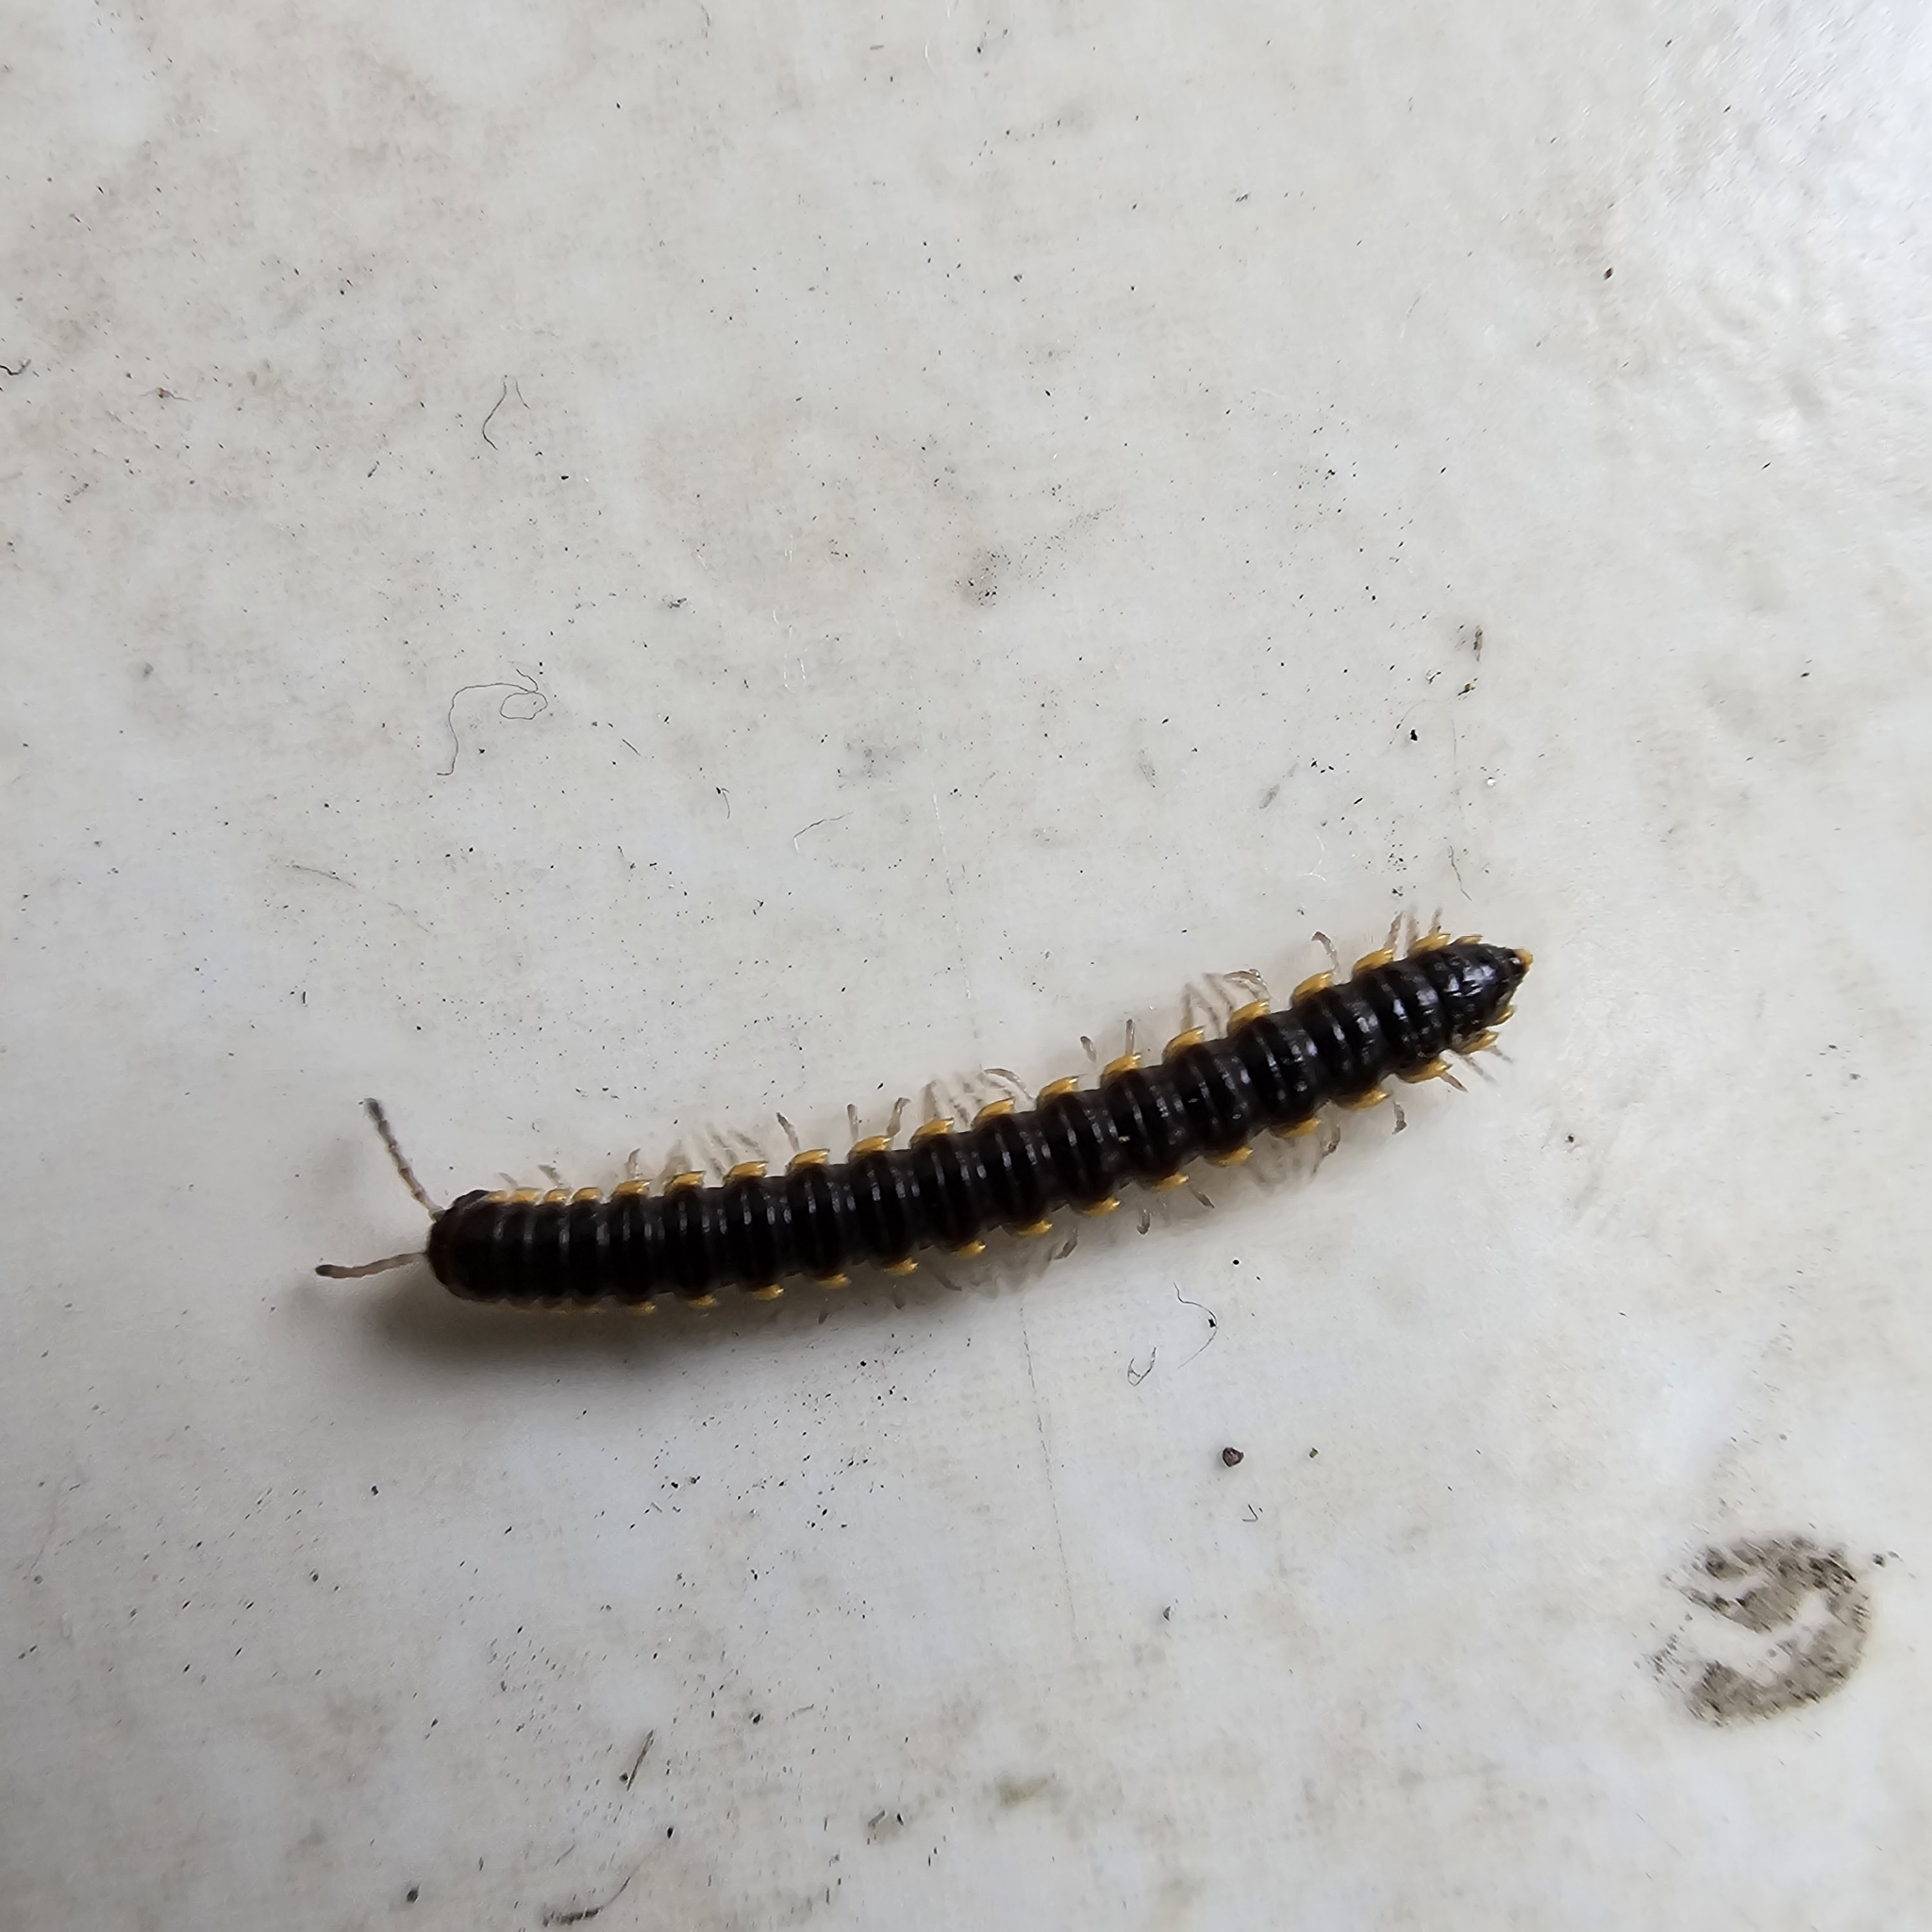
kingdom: Animalia
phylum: Arthropoda
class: Diplopoda
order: Polydesmida
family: Paradoxosomatidae
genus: Orthomorpha
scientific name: Orthomorpha coarctata
